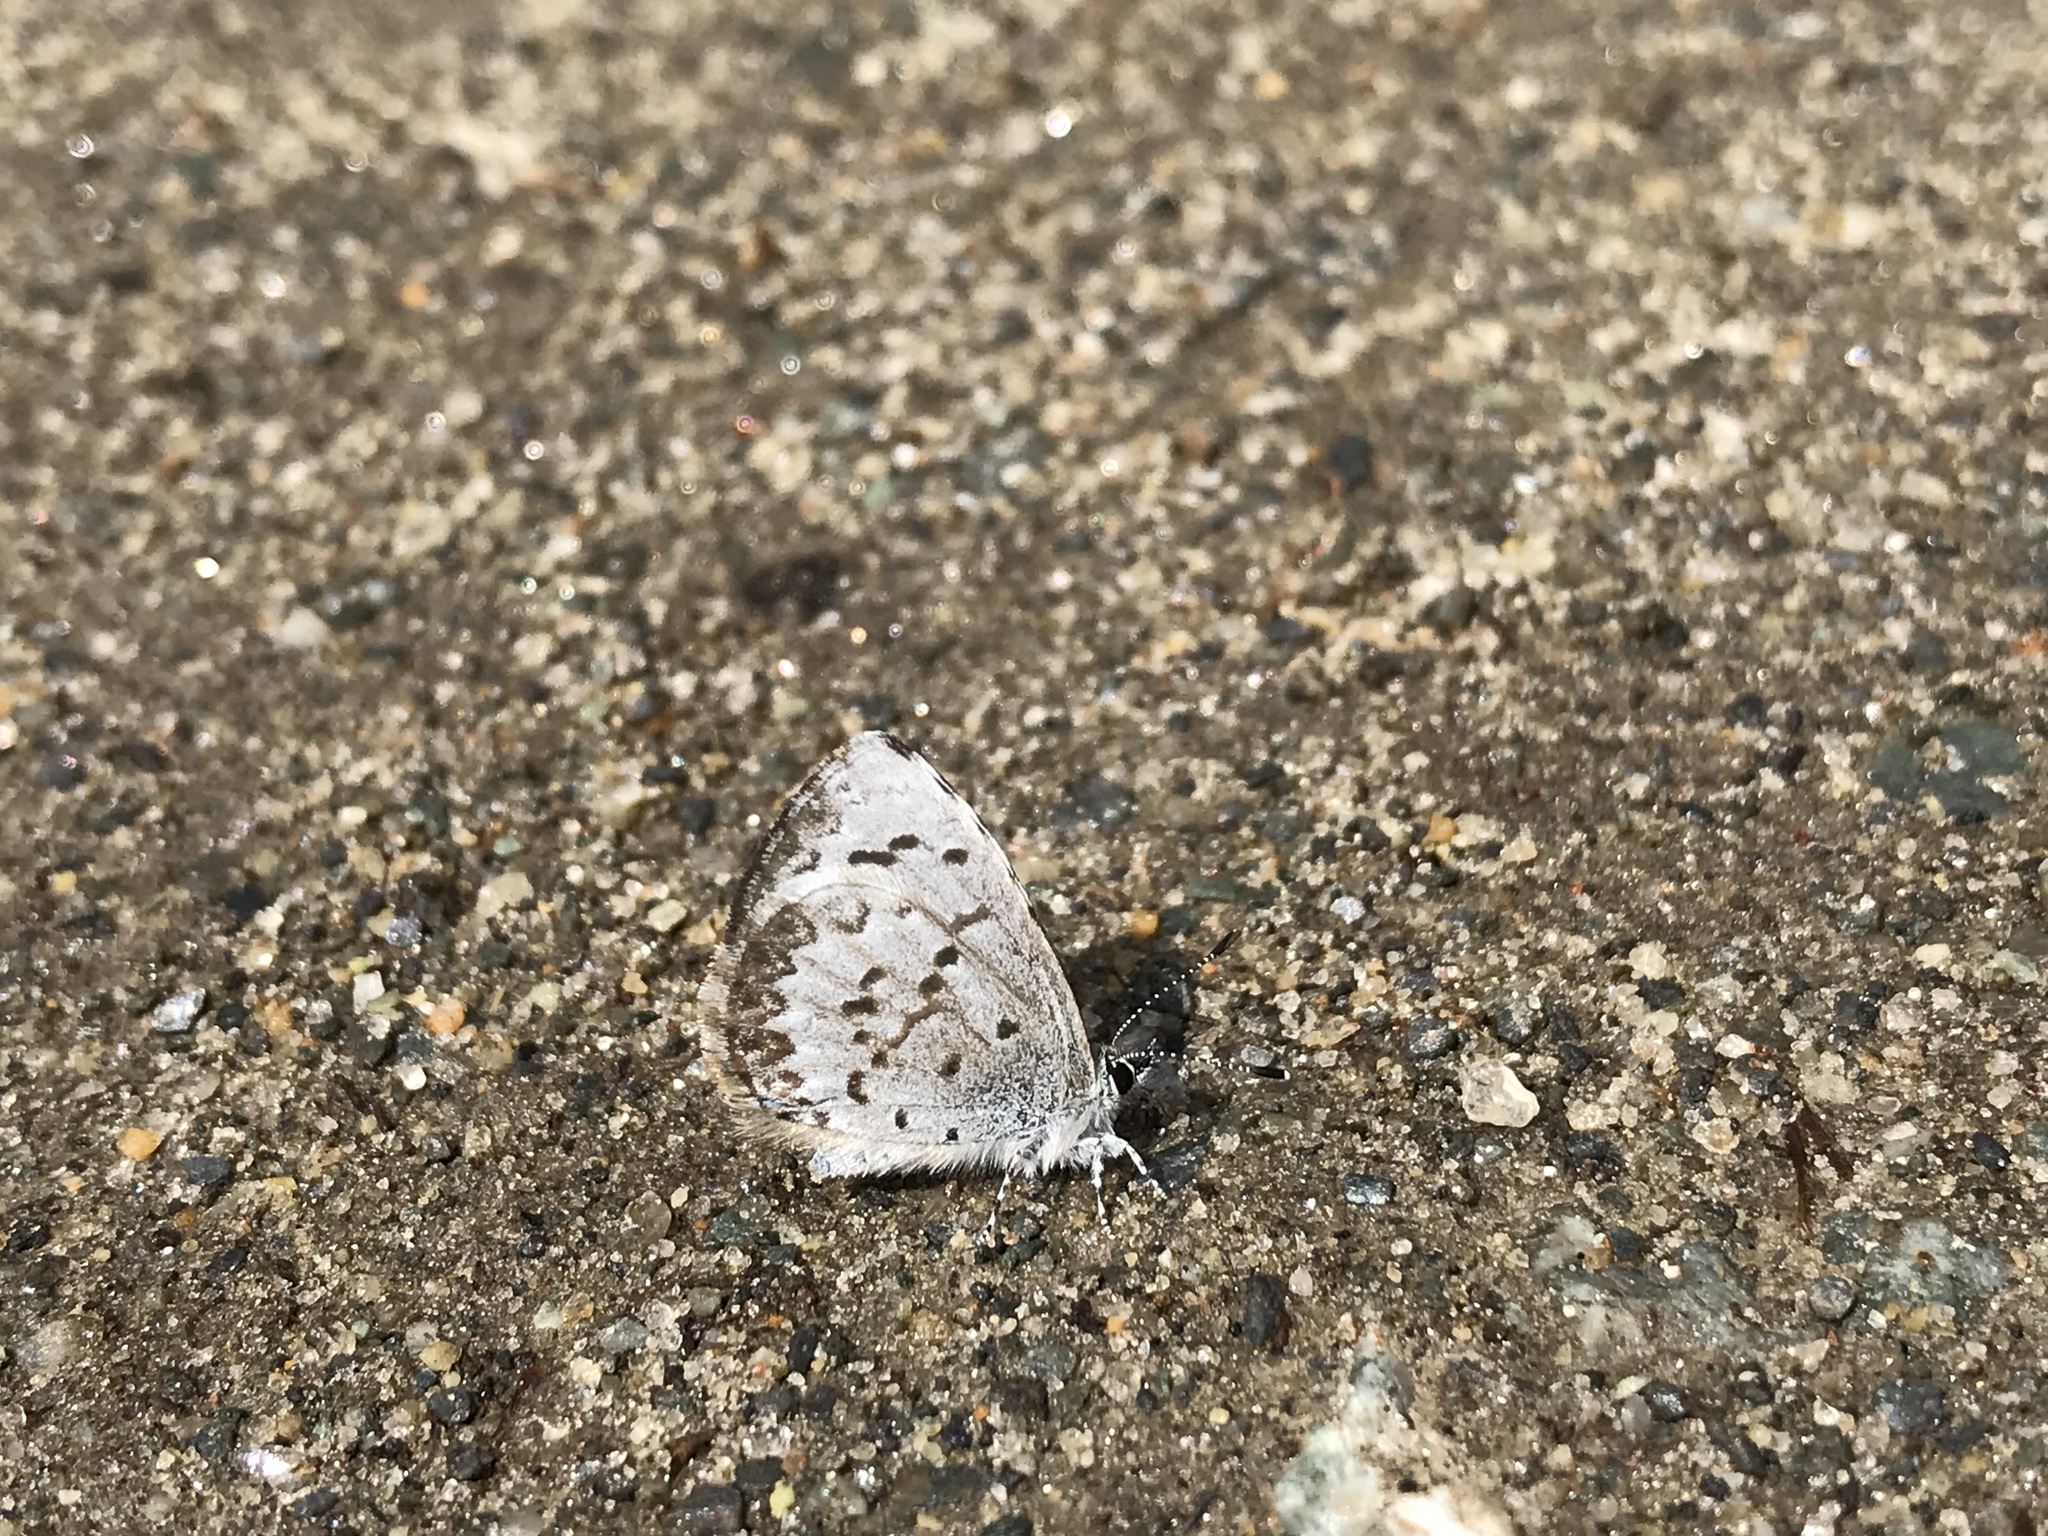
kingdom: Animalia
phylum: Arthropoda
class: Insecta
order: Lepidoptera
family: Lycaenidae
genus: Celastrina
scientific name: Celastrina lucia
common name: Lucia azure
